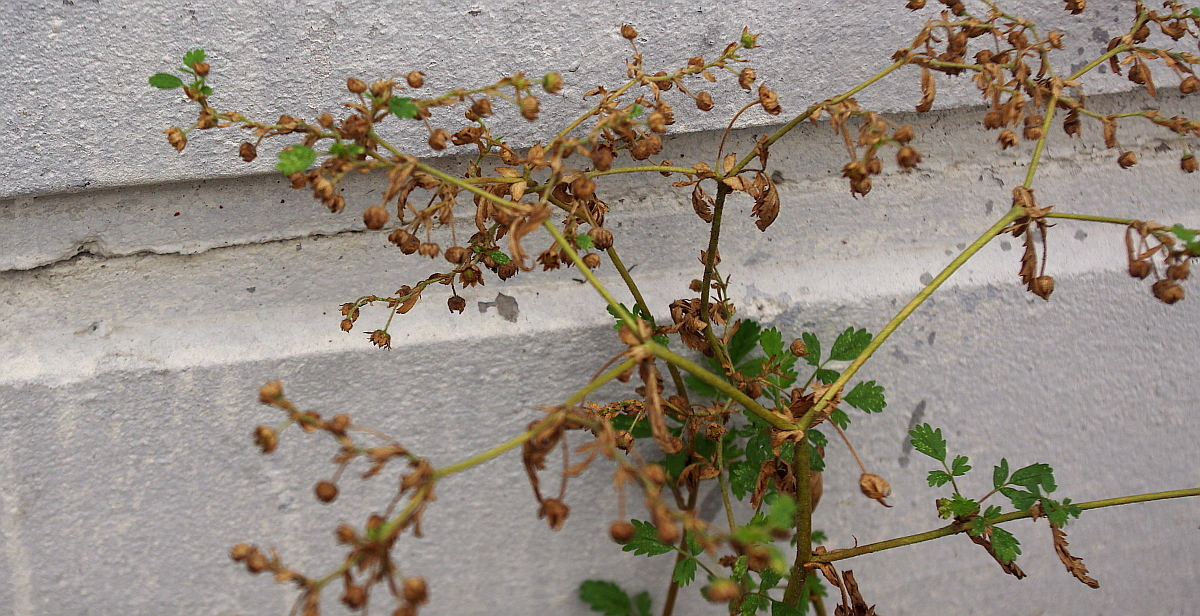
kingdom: Plantae
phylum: Tracheophyta
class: Magnoliopsida
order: Rosales
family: Rosaceae
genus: Potentilla
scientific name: Potentilla supina
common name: Prostrate cinquefoil
